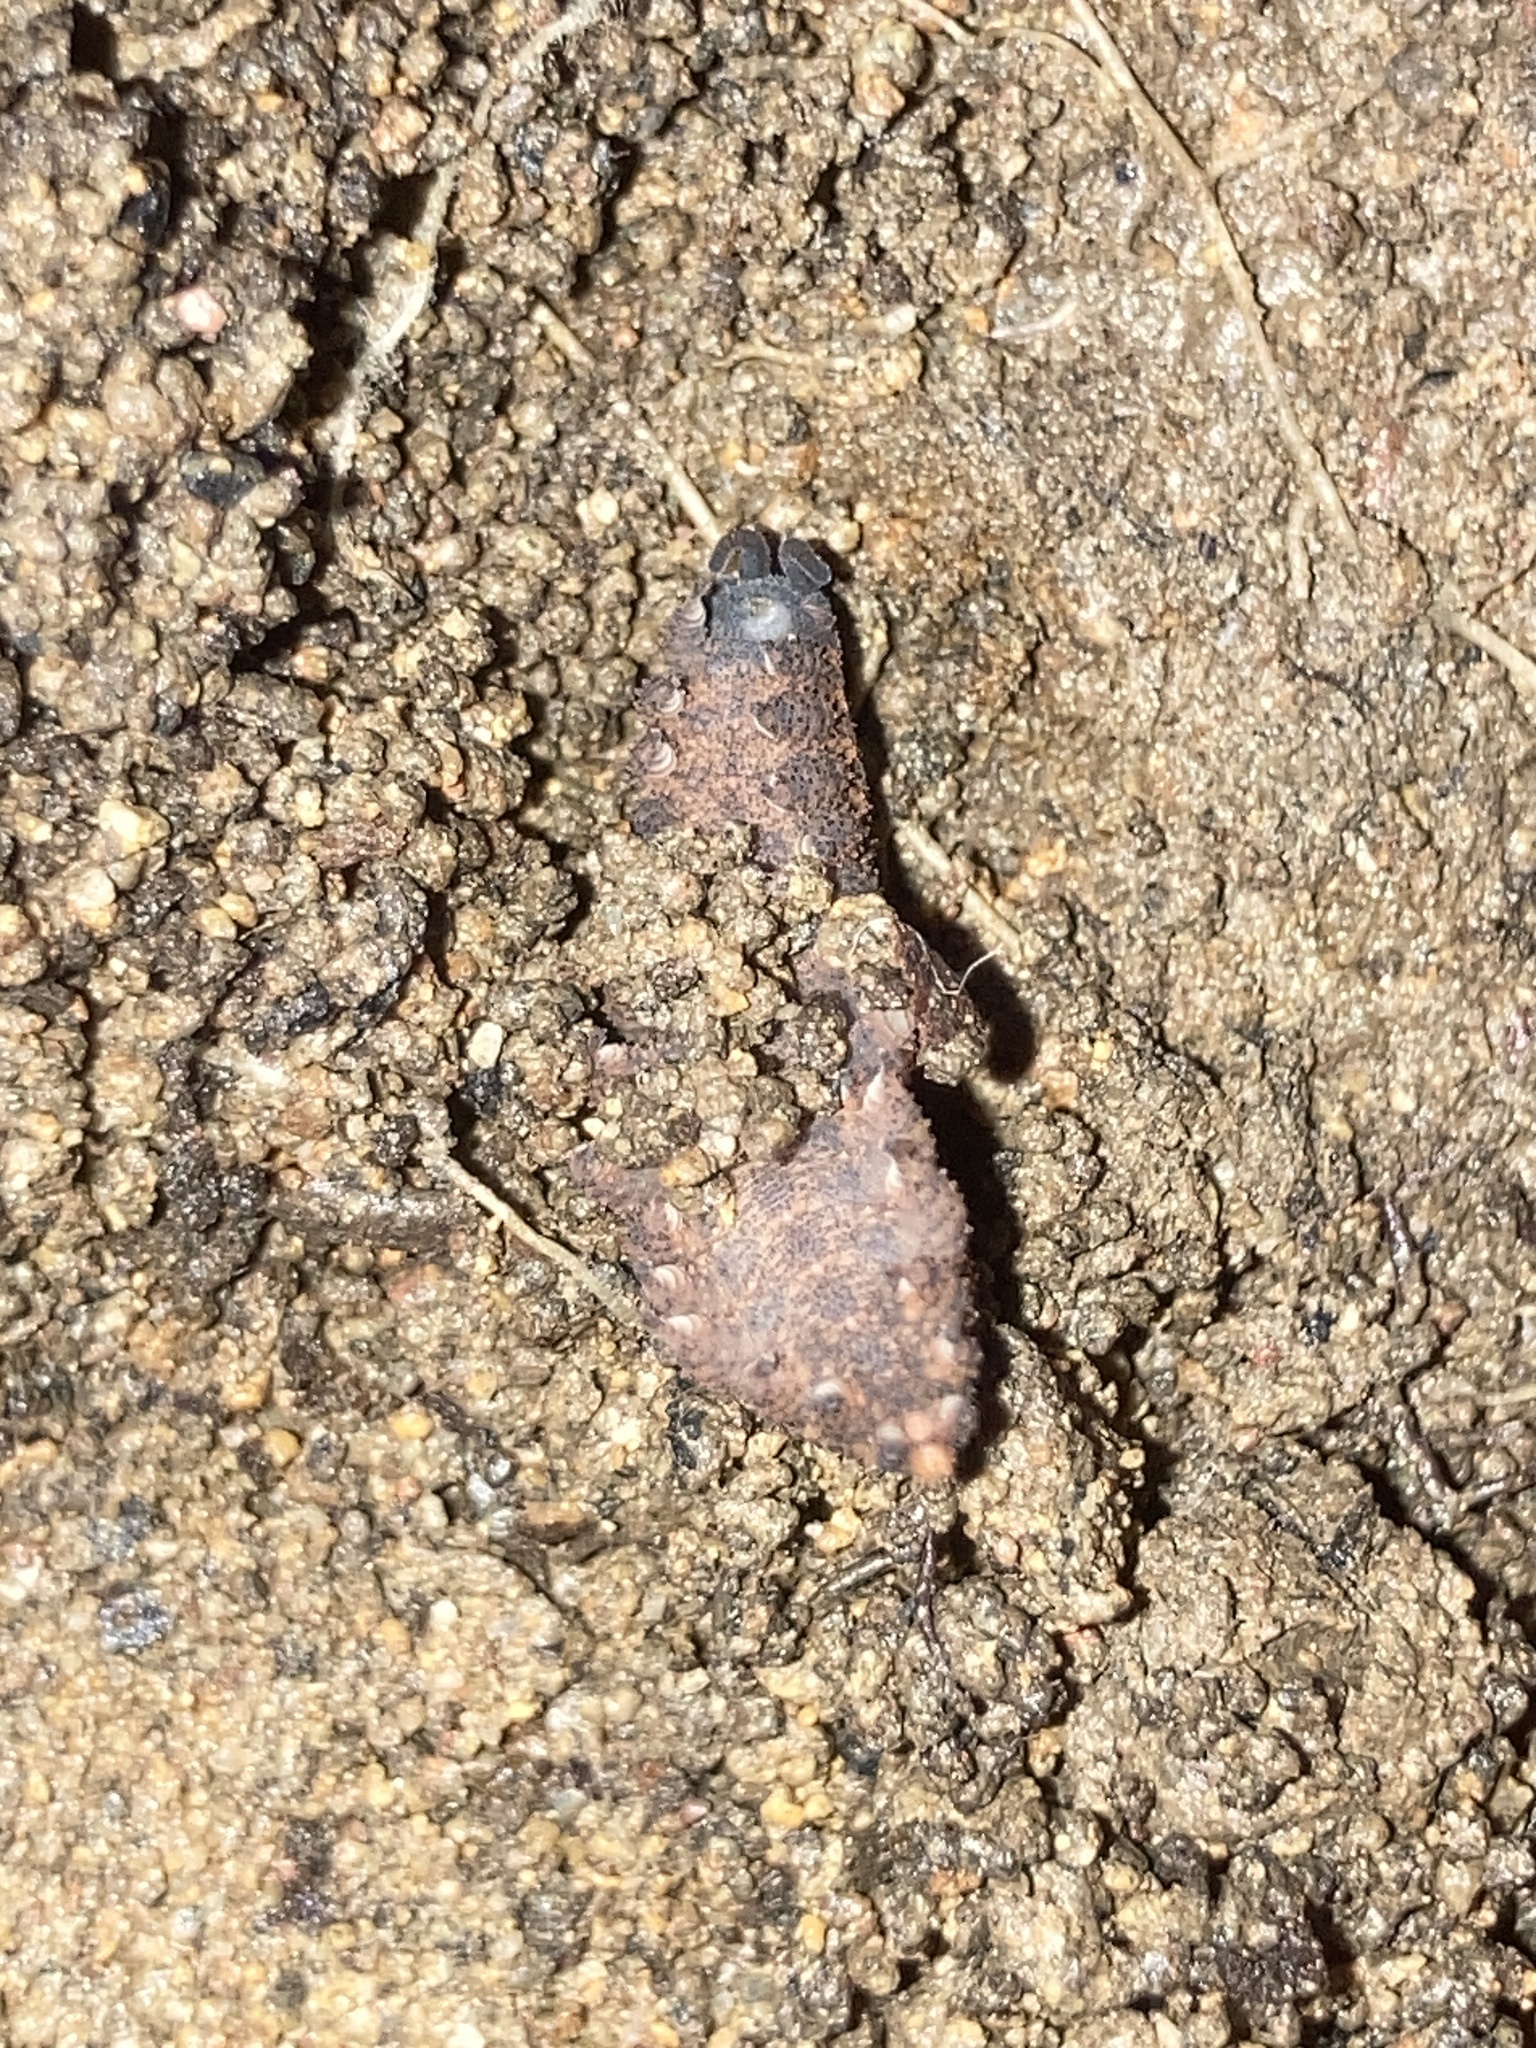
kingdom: Animalia
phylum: Onychophora
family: Peripatopsidae
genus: Anoplokaros
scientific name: Anoplokaros keerensis
